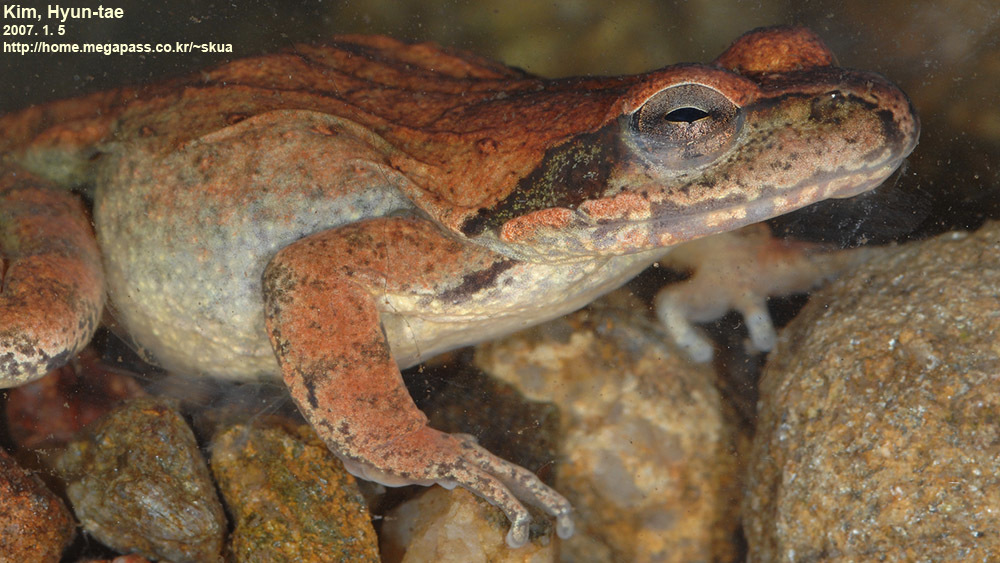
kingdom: Animalia
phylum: Chordata
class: Amphibia
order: Anura
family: Ranidae
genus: Rana
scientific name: Rana huanrenensis
